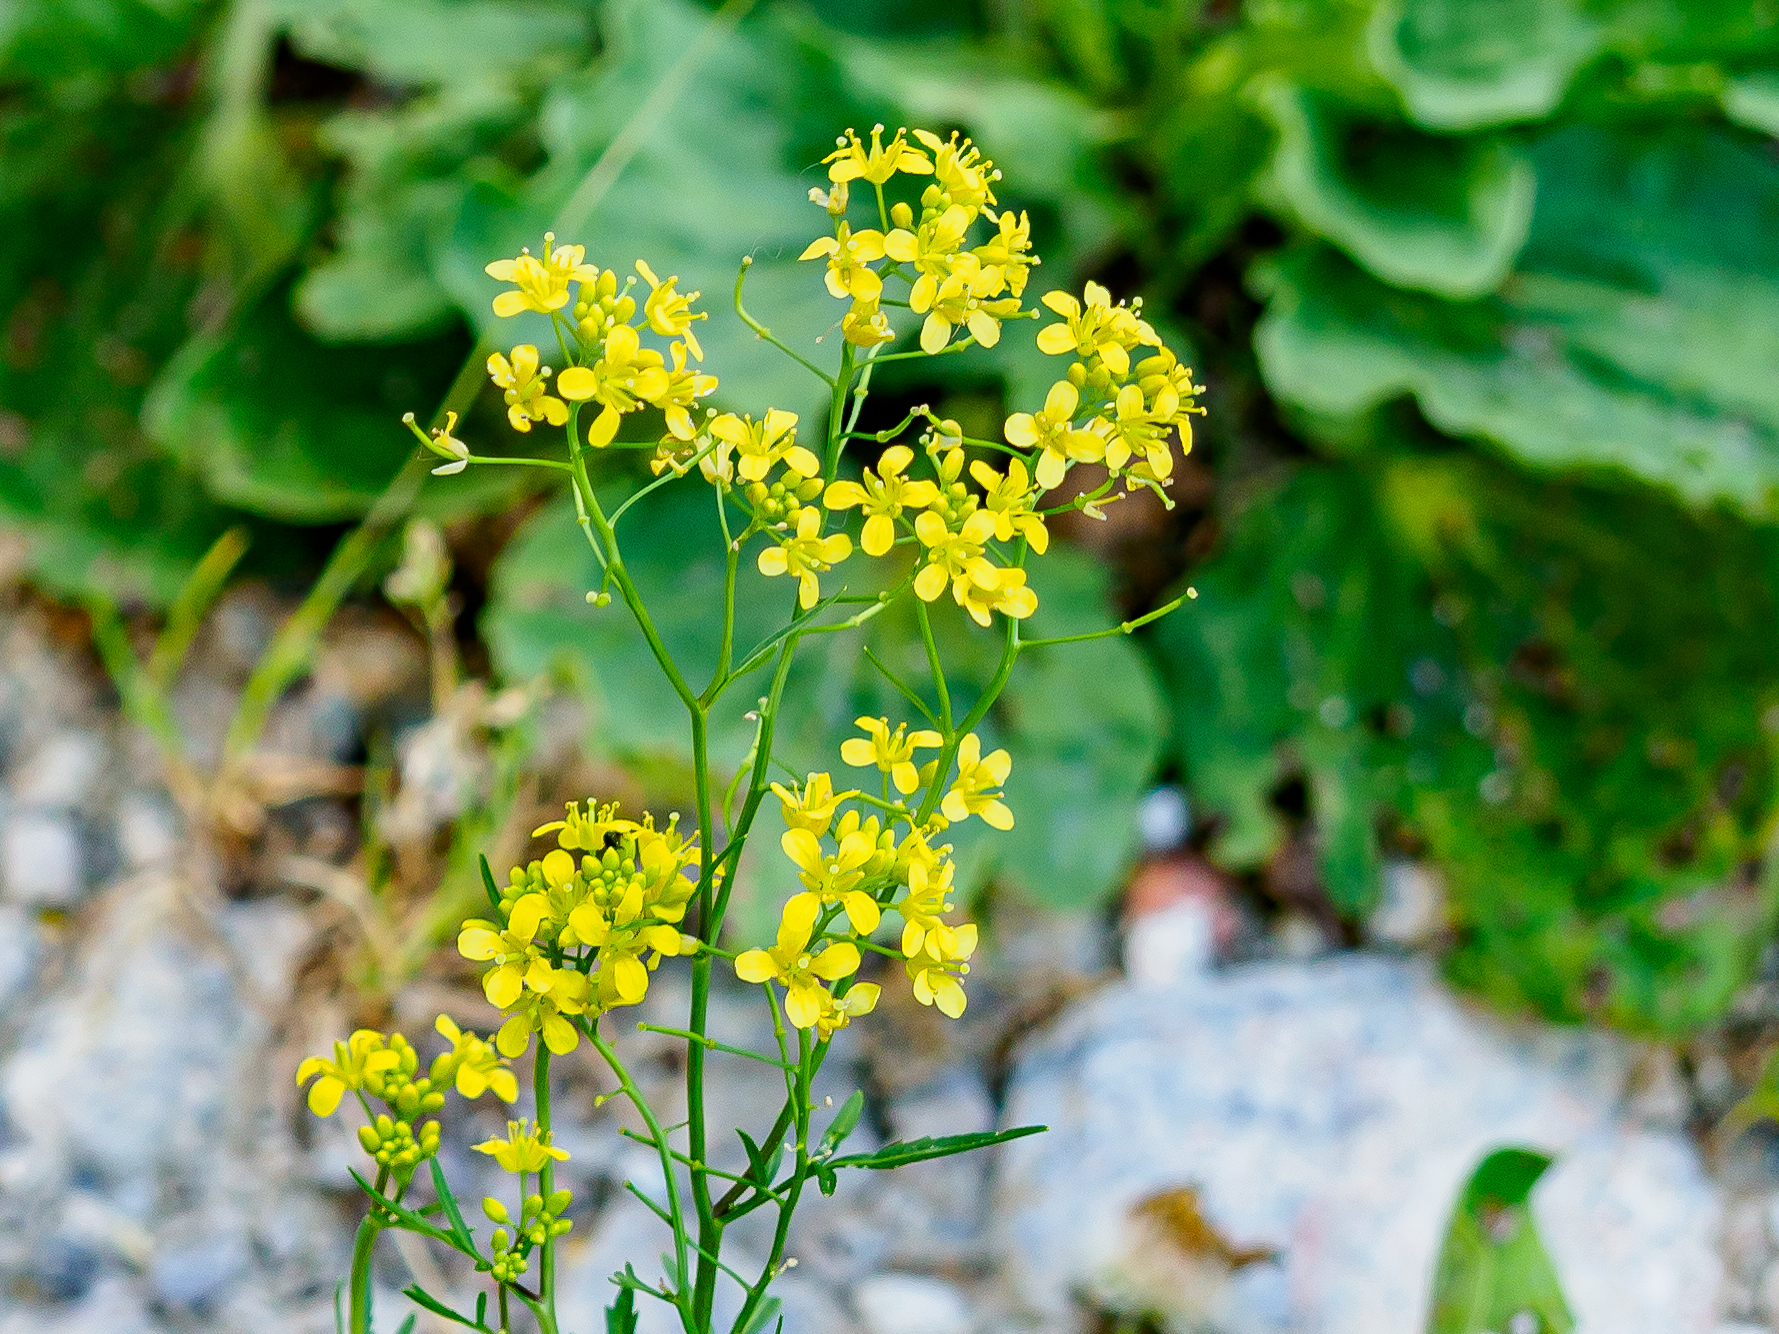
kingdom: Plantae
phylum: Tracheophyta
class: Magnoliopsida
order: Brassicales
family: Brassicaceae
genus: Rorippa
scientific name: Rorippa sylvestris
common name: Creeping yellowcress
